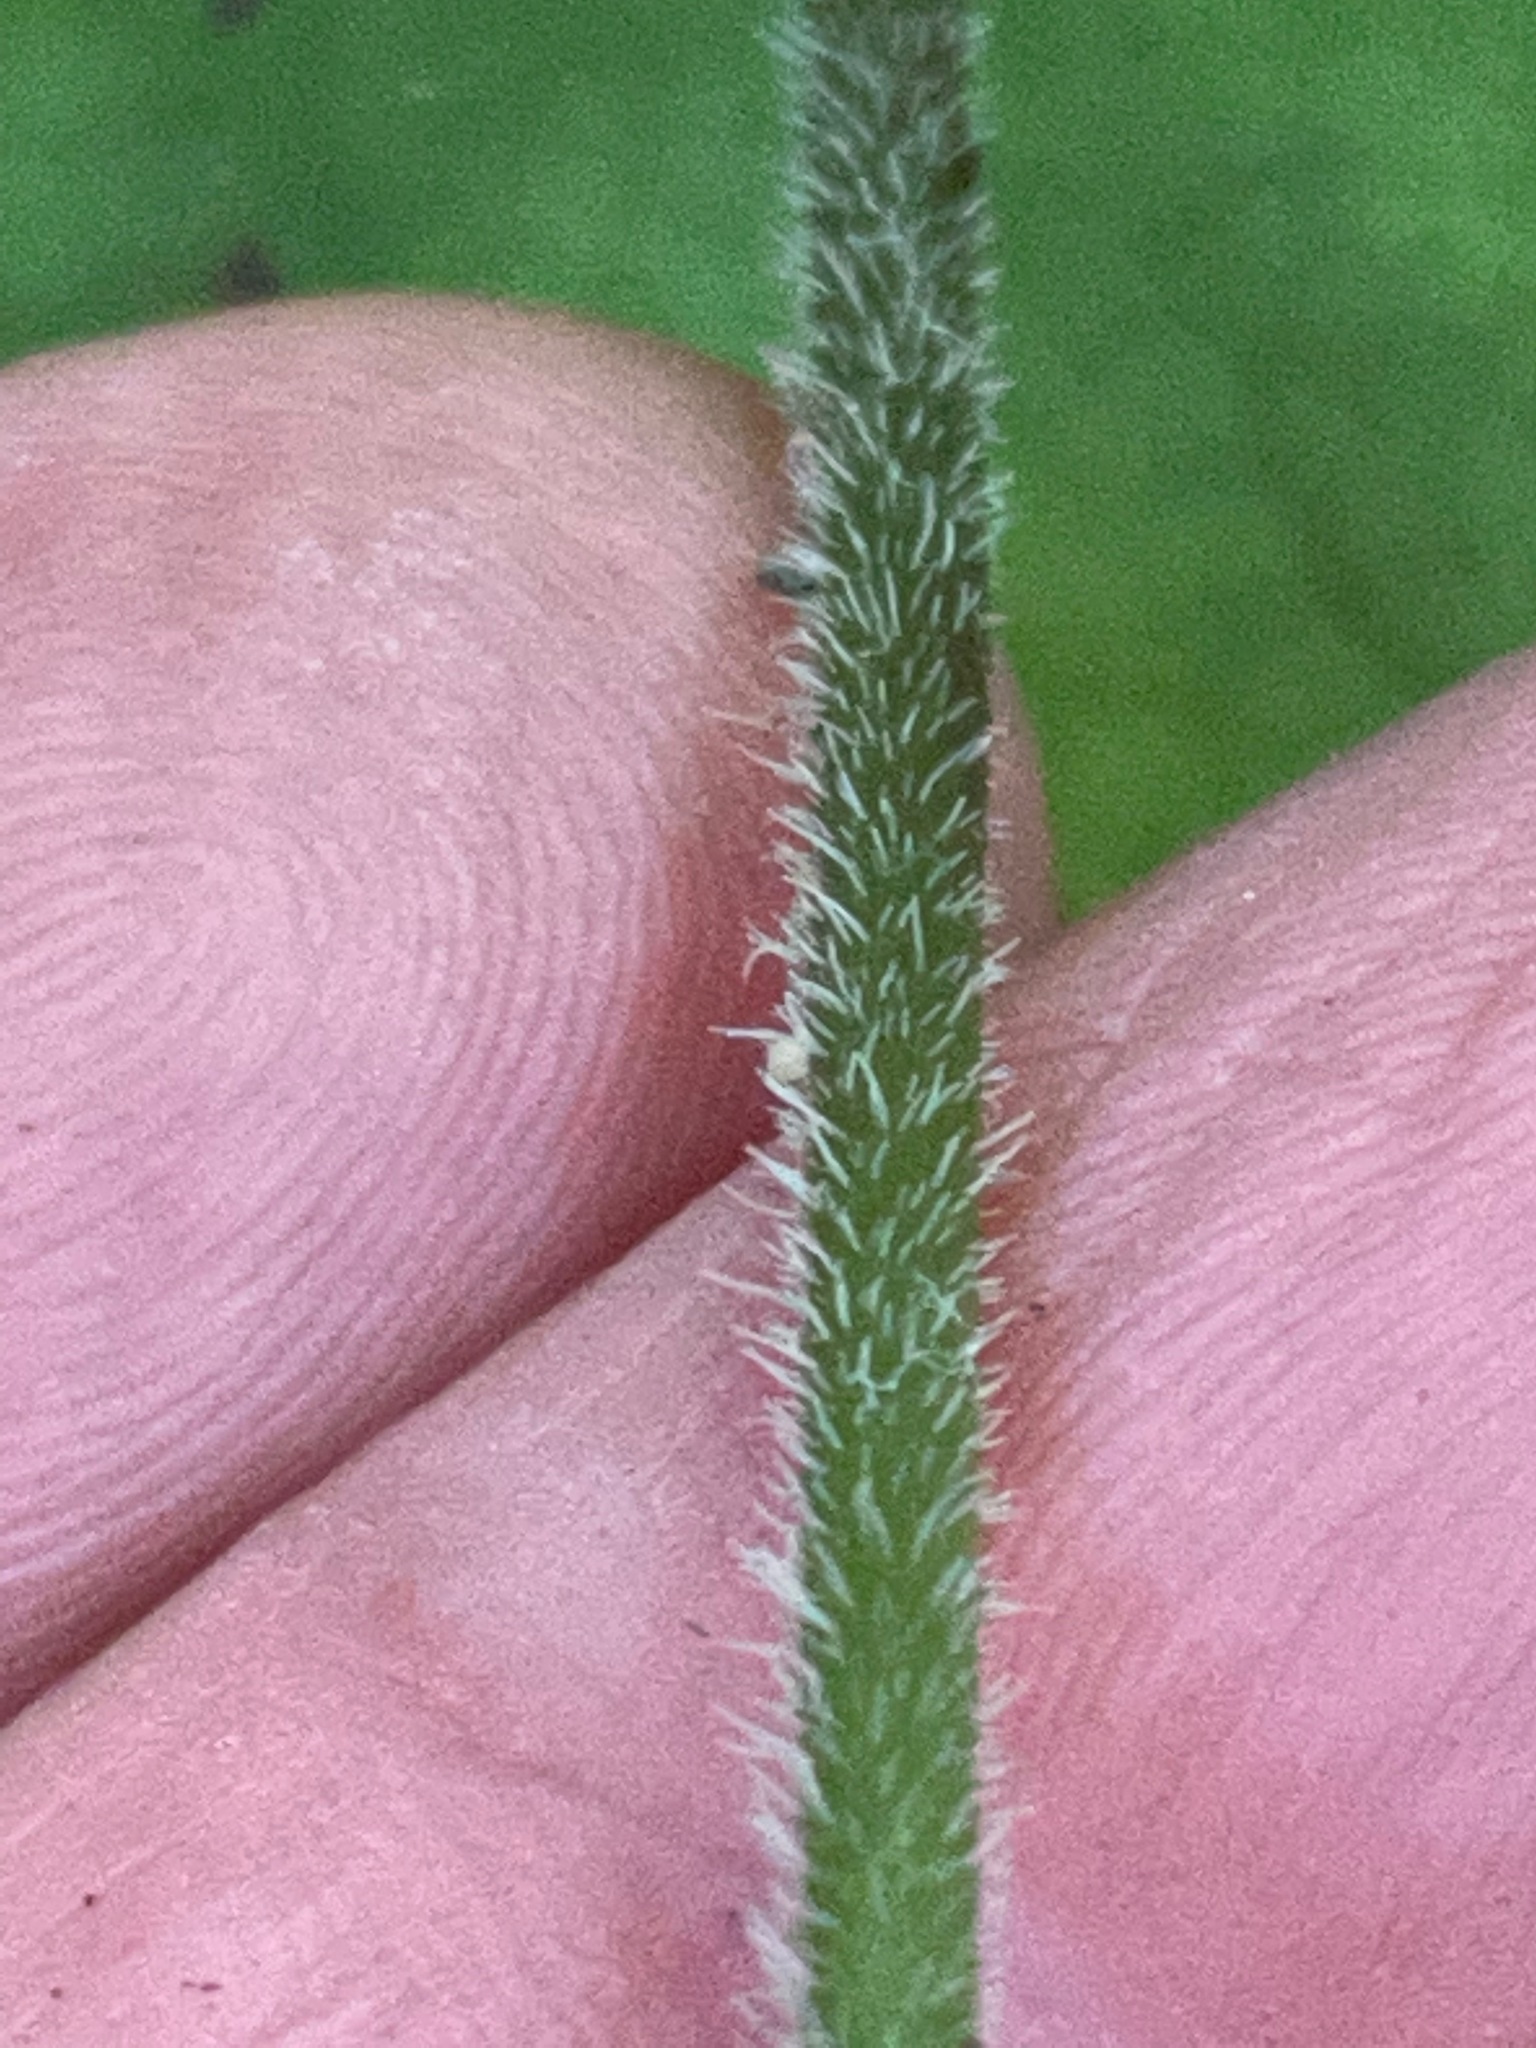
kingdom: Plantae
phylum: Tracheophyta
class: Magnoliopsida
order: Saxifragales
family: Saxifragaceae
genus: Tiarella
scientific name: Tiarella stolonifera
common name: Stoloniferous foamflower
